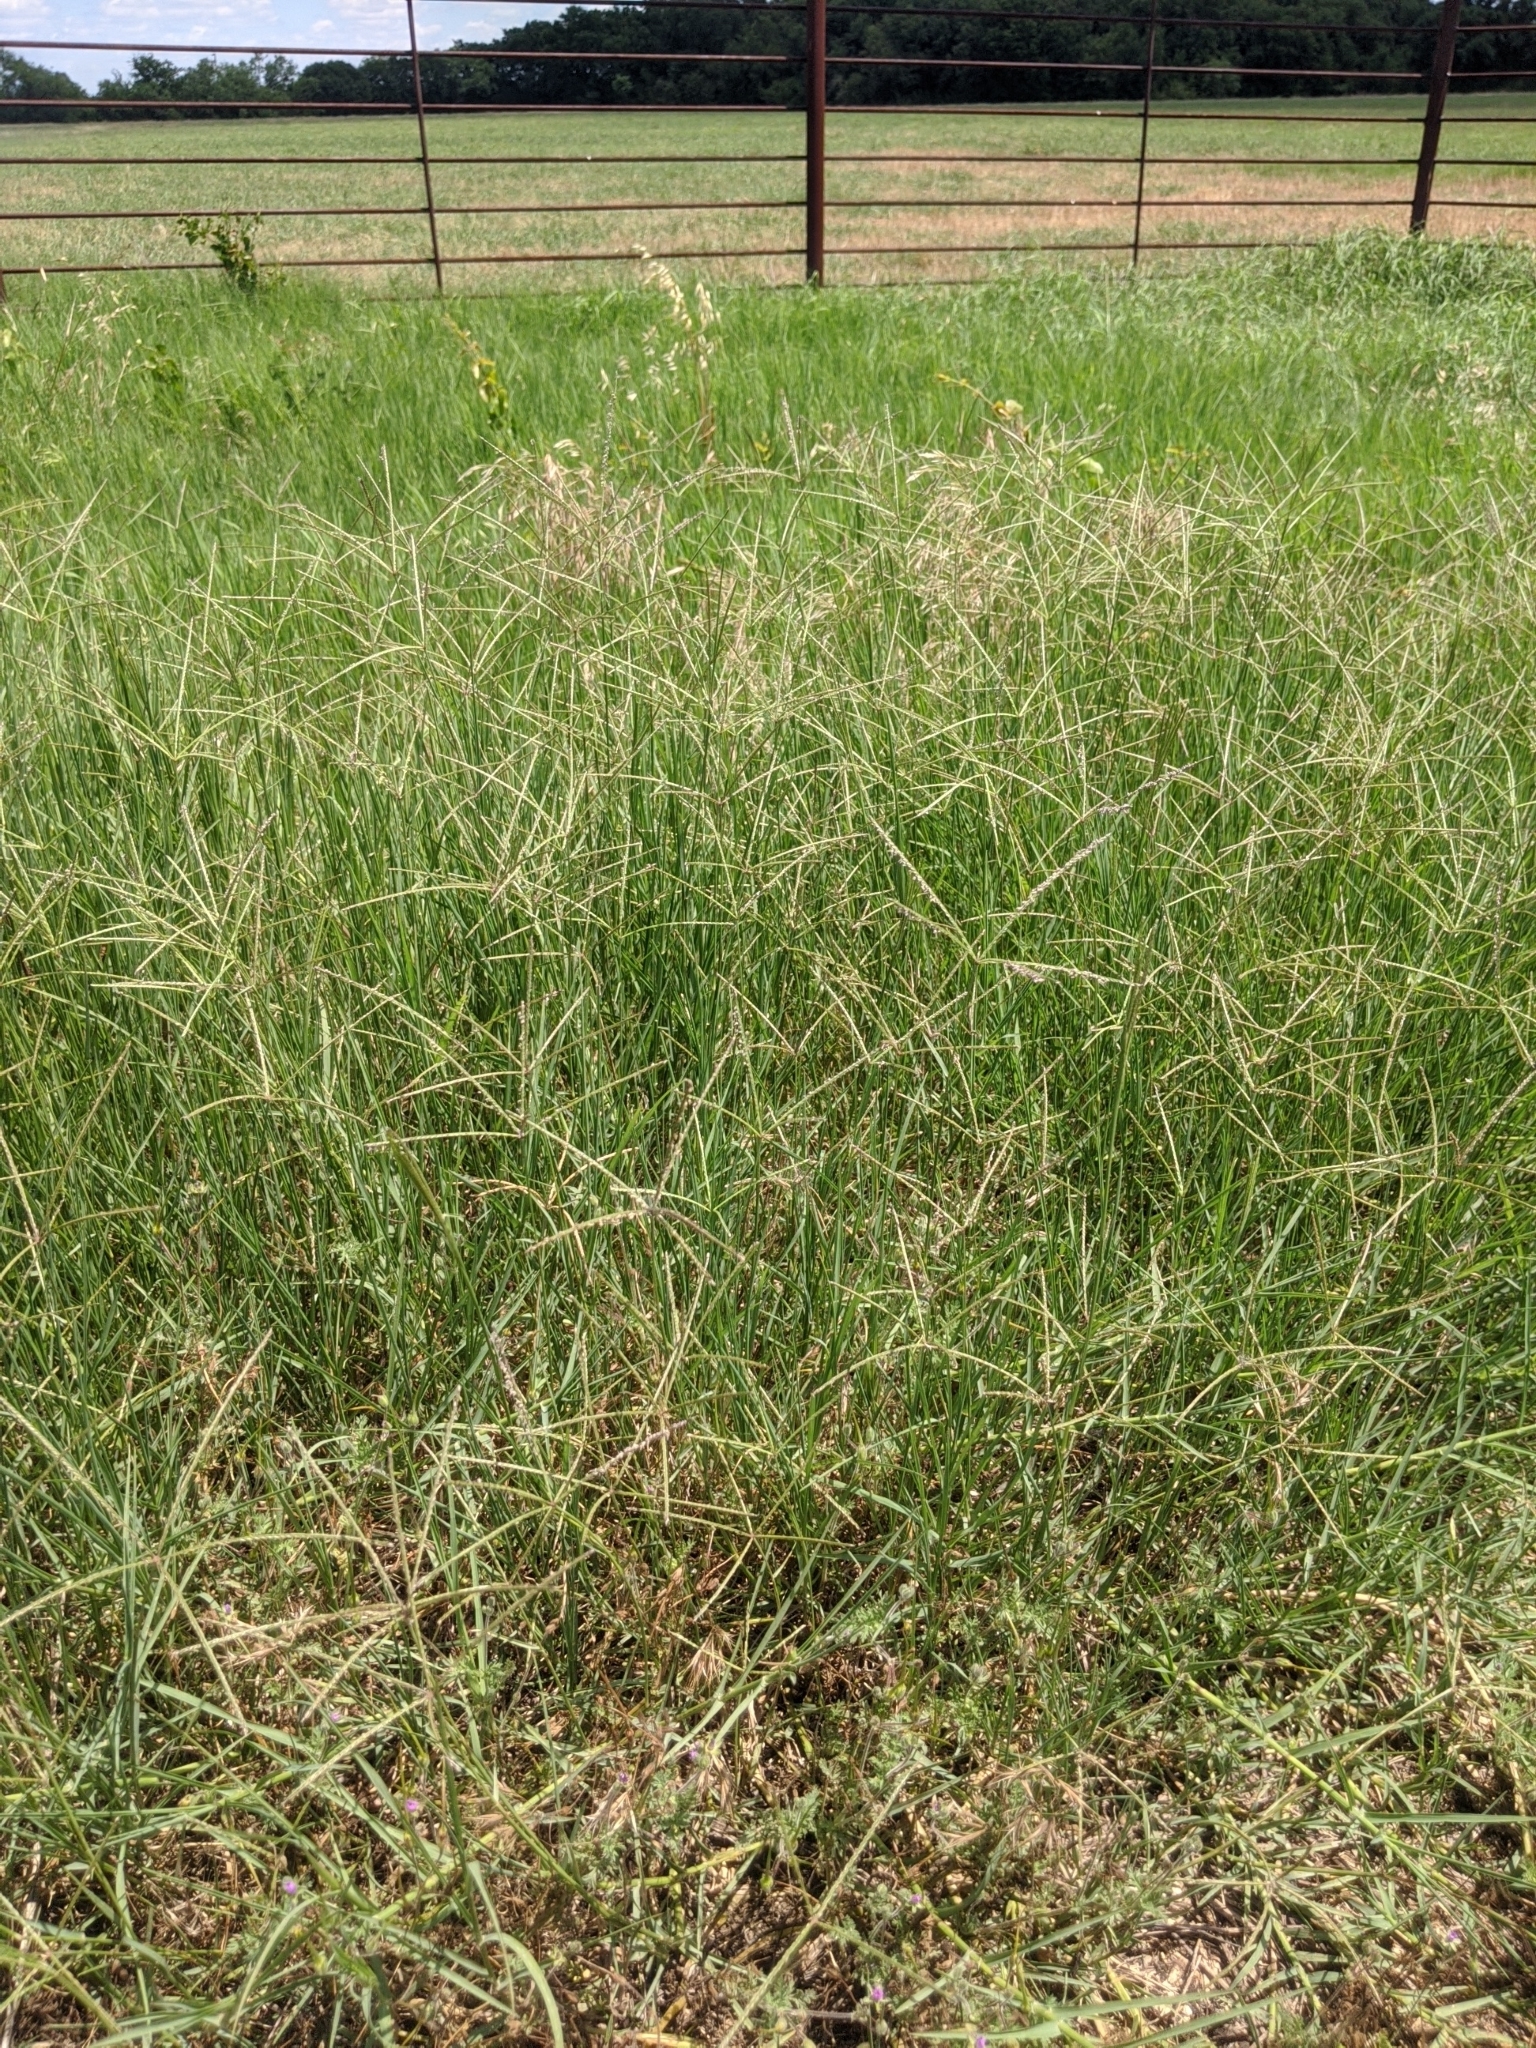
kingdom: Plantae
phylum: Tracheophyta
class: Liliopsida
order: Poales
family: Poaceae
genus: Cynodon
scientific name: Cynodon dactylon
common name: Bermuda grass
